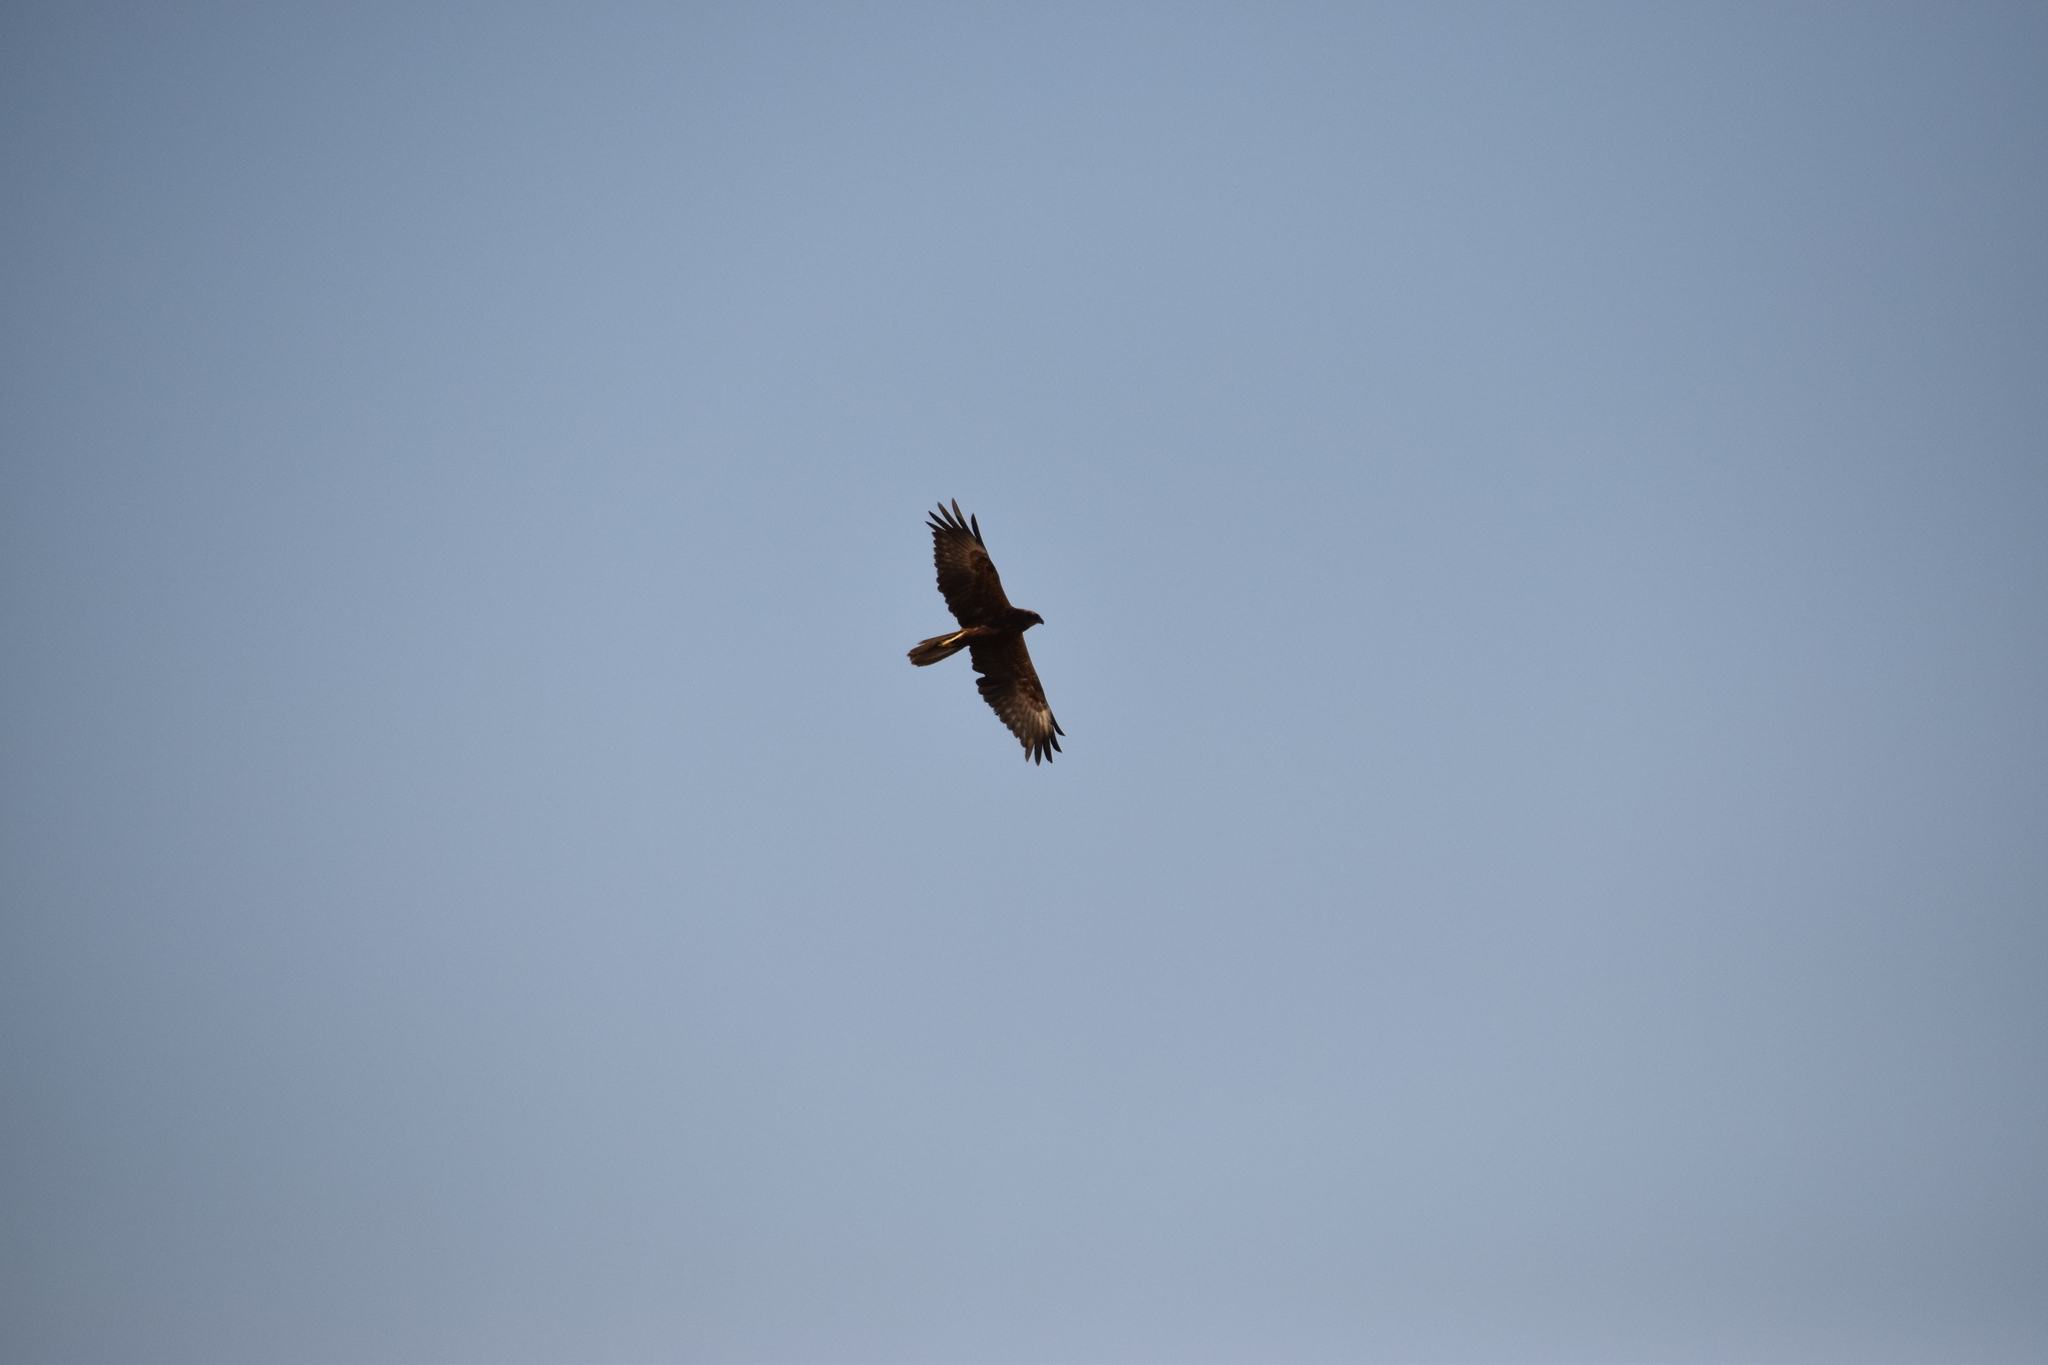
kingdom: Animalia
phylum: Chordata
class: Aves
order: Accipitriformes
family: Accipitridae
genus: Circus
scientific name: Circus aeruginosus
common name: Western marsh harrier
